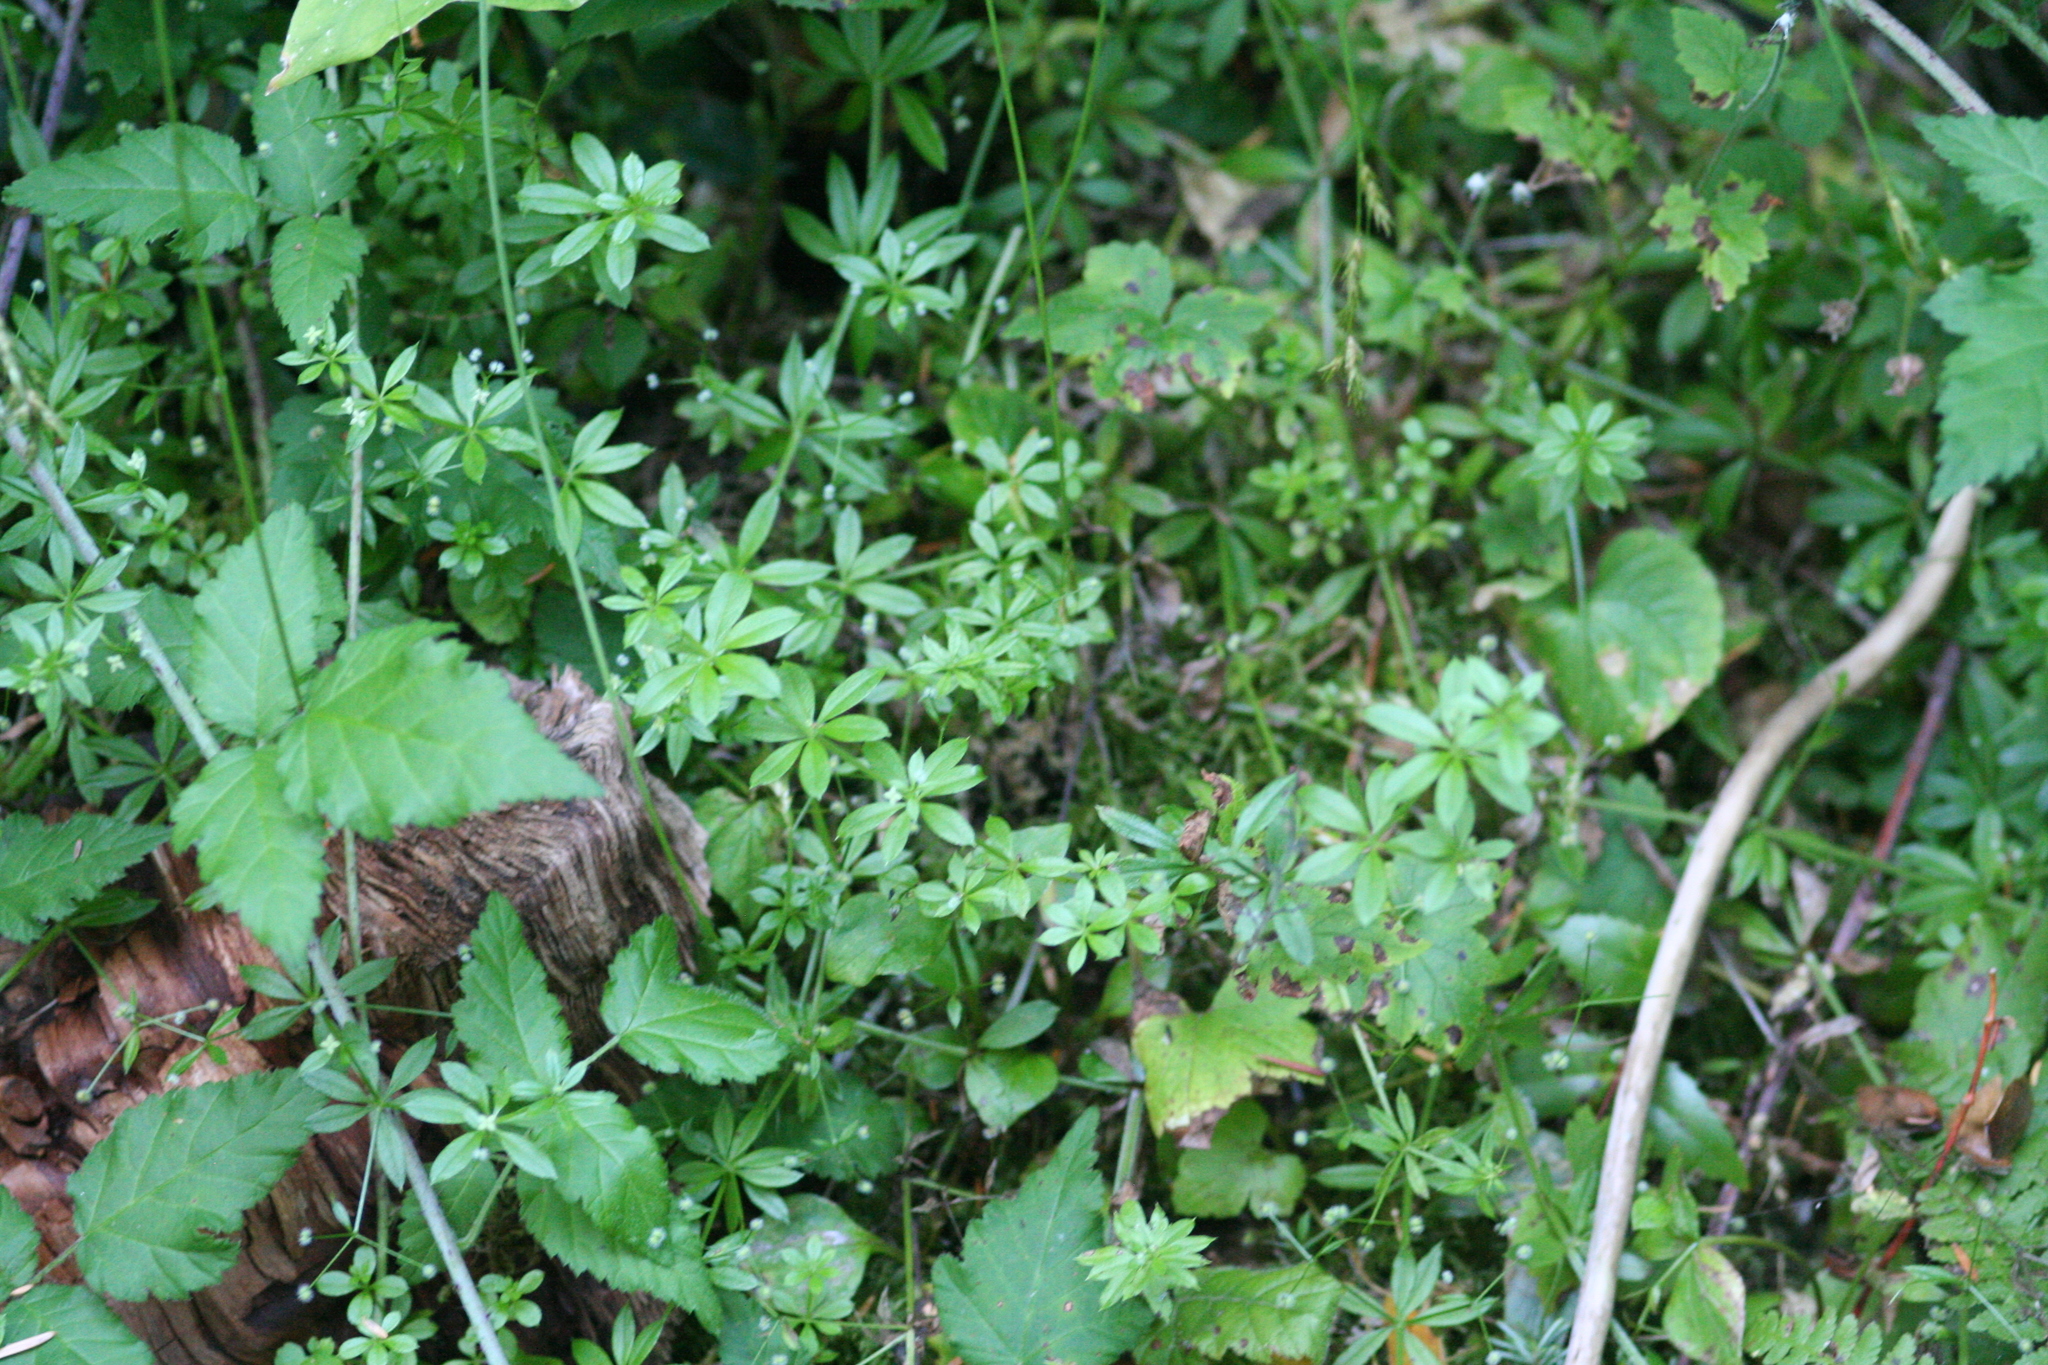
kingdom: Plantae
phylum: Tracheophyta
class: Magnoliopsida
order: Gentianales
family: Rubiaceae
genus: Galium
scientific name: Galium triflorum
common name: Fragrant bedstraw
